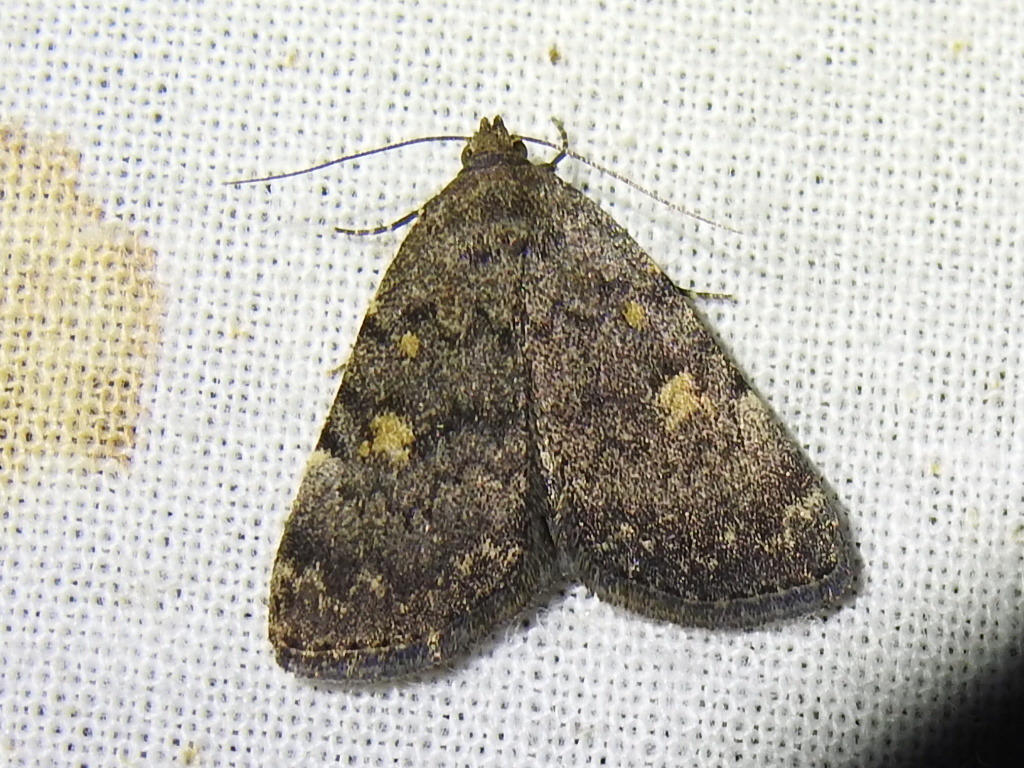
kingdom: Animalia
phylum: Arthropoda
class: Insecta
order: Lepidoptera
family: Erebidae
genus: Idia
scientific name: Idia aemula
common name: Common idia moth
